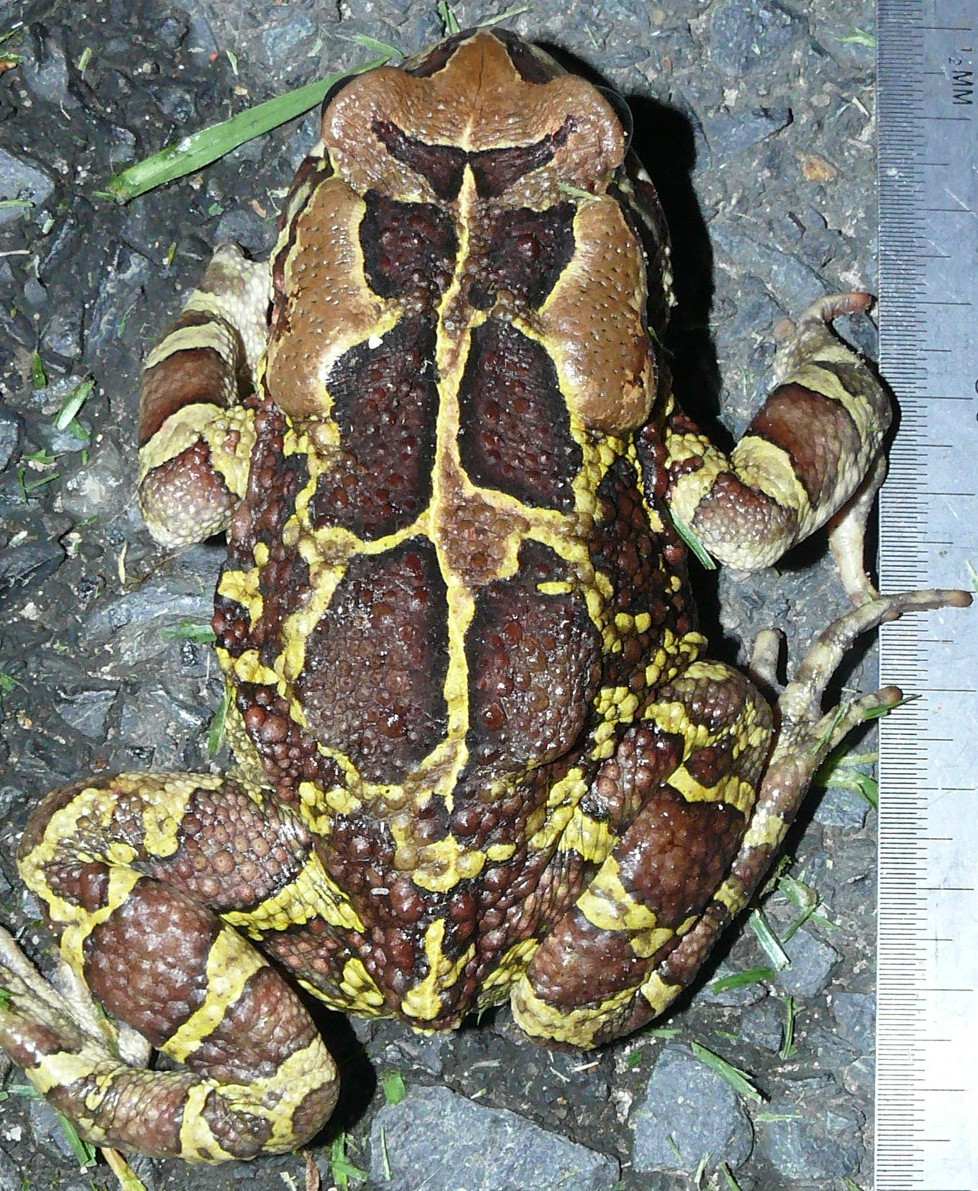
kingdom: Animalia
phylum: Chordata
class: Amphibia
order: Anura
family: Bufonidae
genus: Sclerophrys
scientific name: Sclerophrys pantherina
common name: Panther toad
